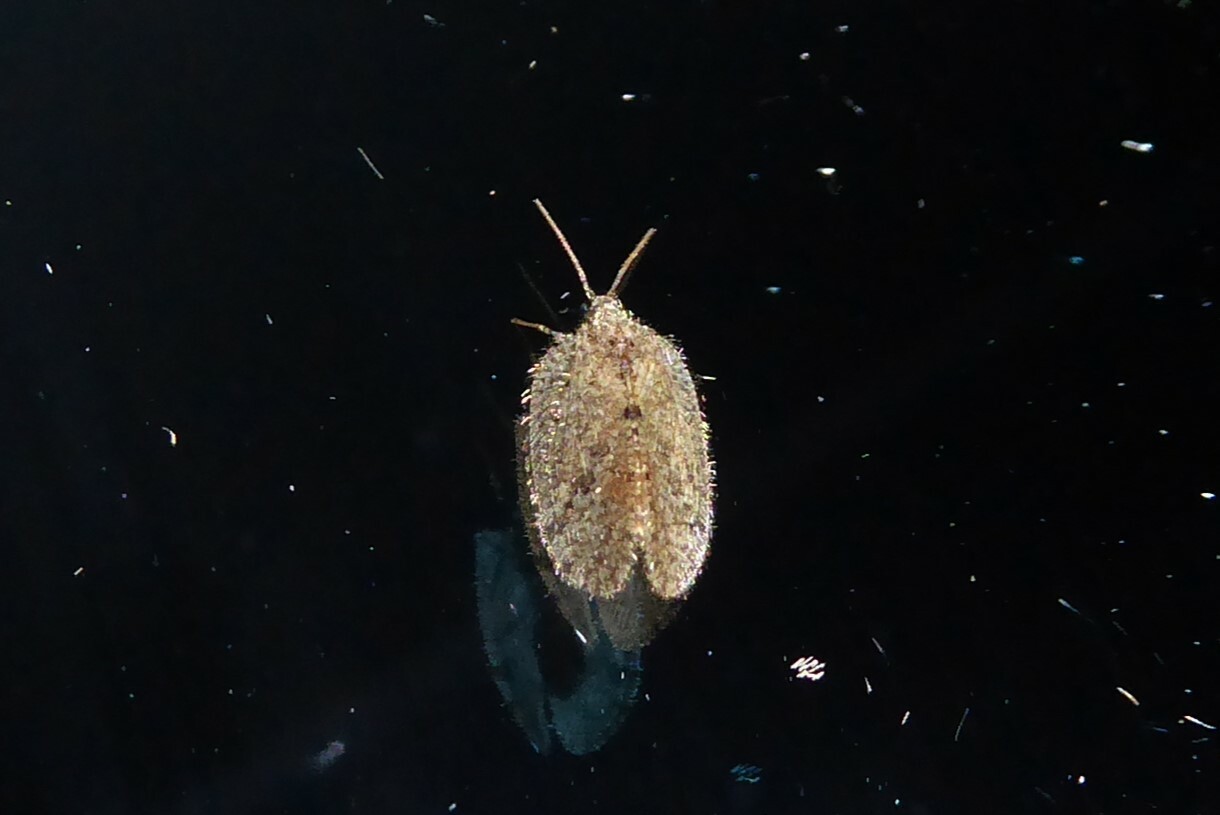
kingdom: Animalia
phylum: Arthropoda
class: Insecta
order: Neuroptera
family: Hemerobiidae
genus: Psectra
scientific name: Psectra nakaharai
